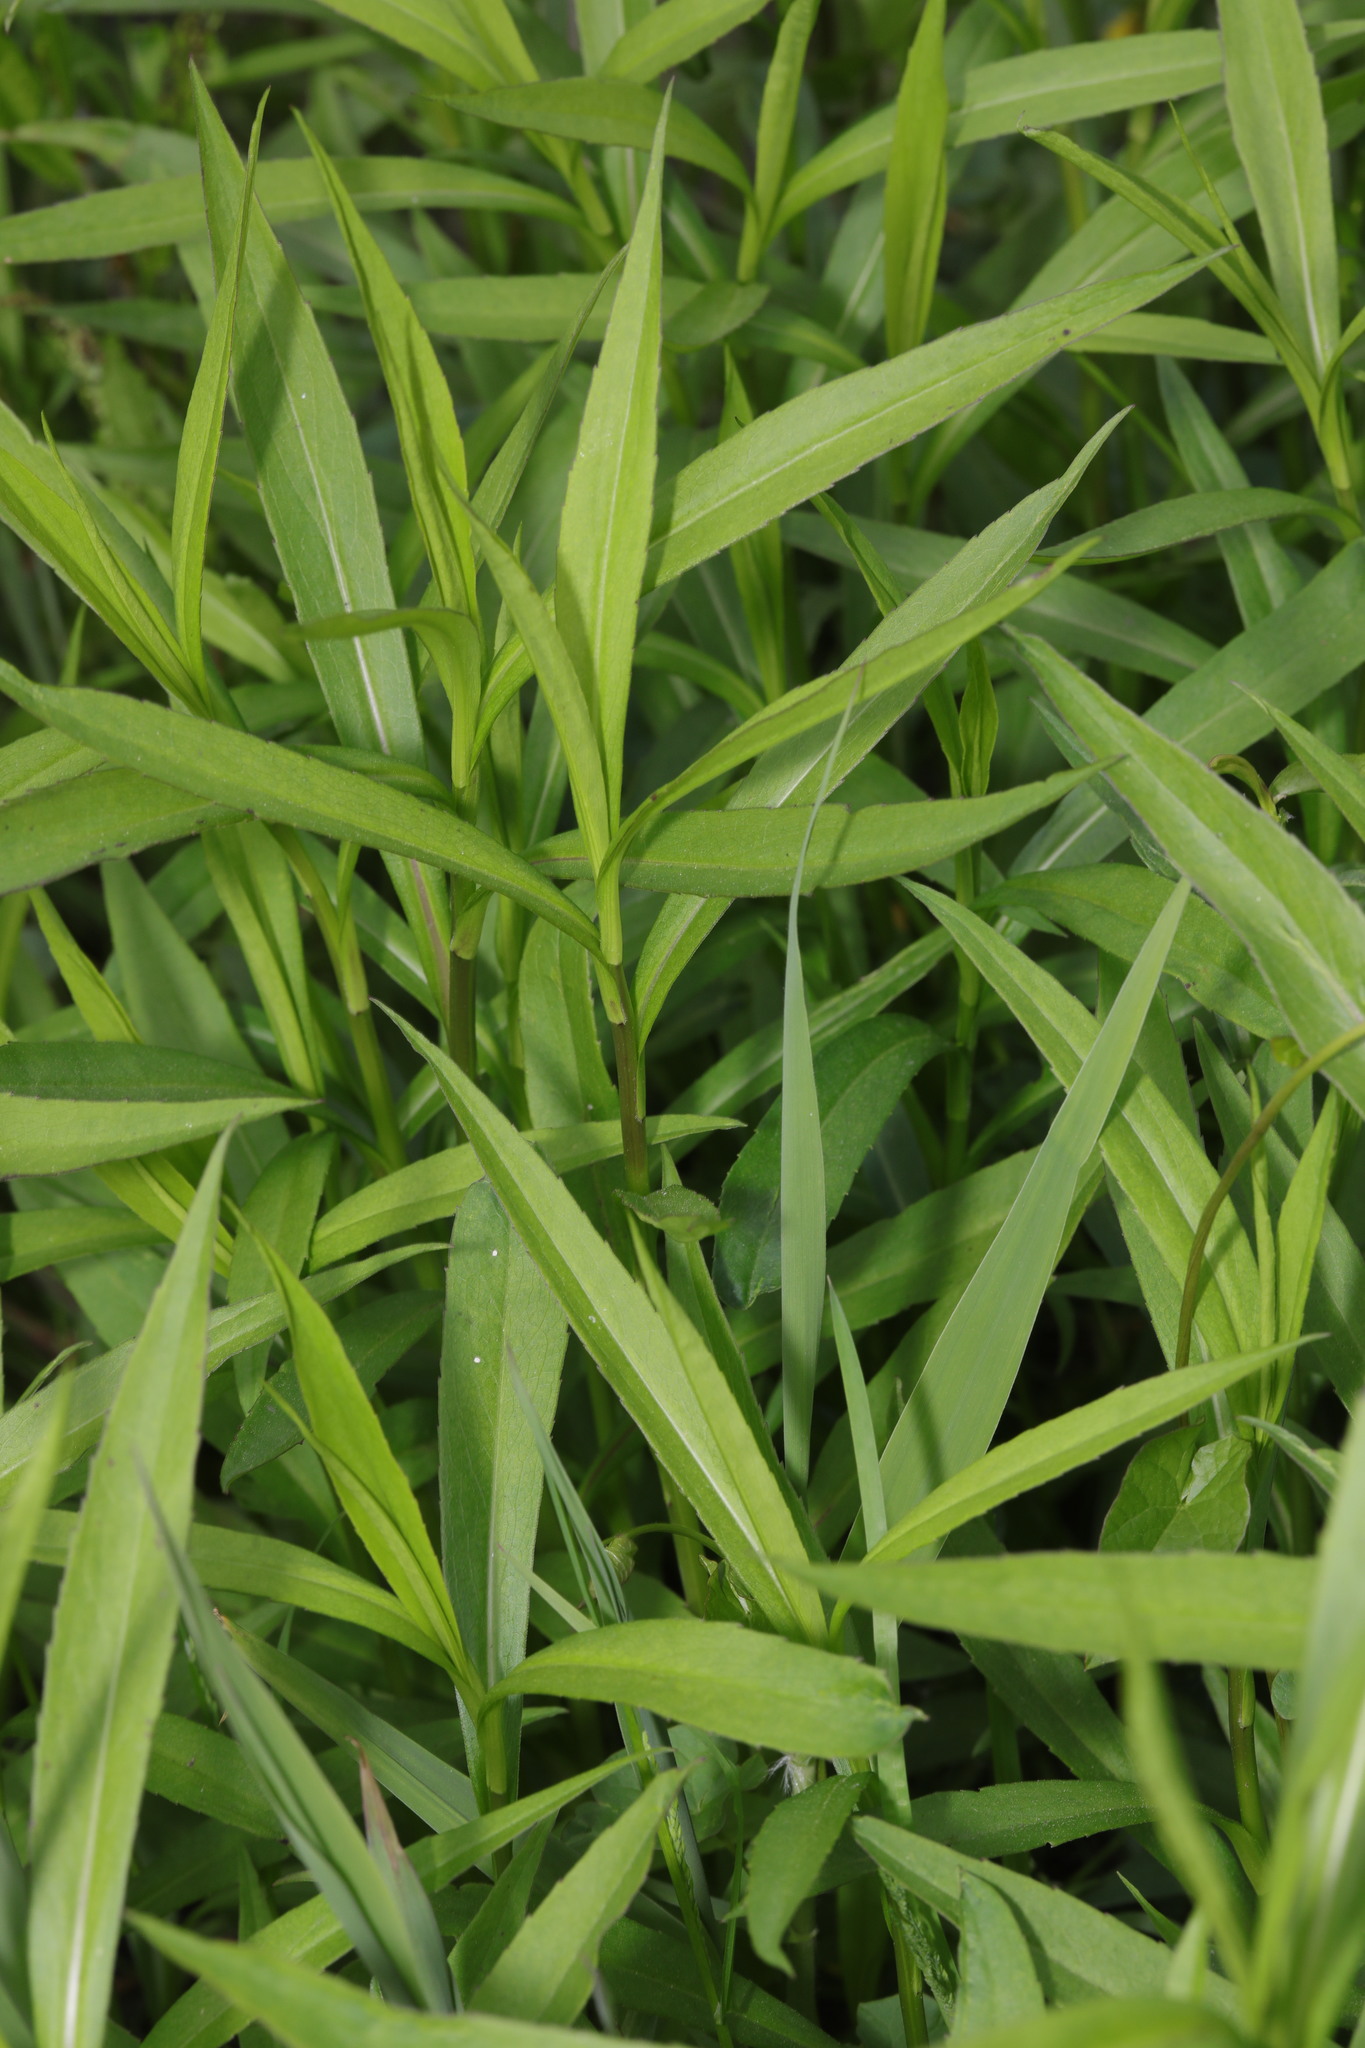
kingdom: Plantae
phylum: Tracheophyta
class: Magnoliopsida
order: Asterales
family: Asteraceae
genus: Solidago
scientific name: Solidago gigantea
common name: Giant goldenrod
